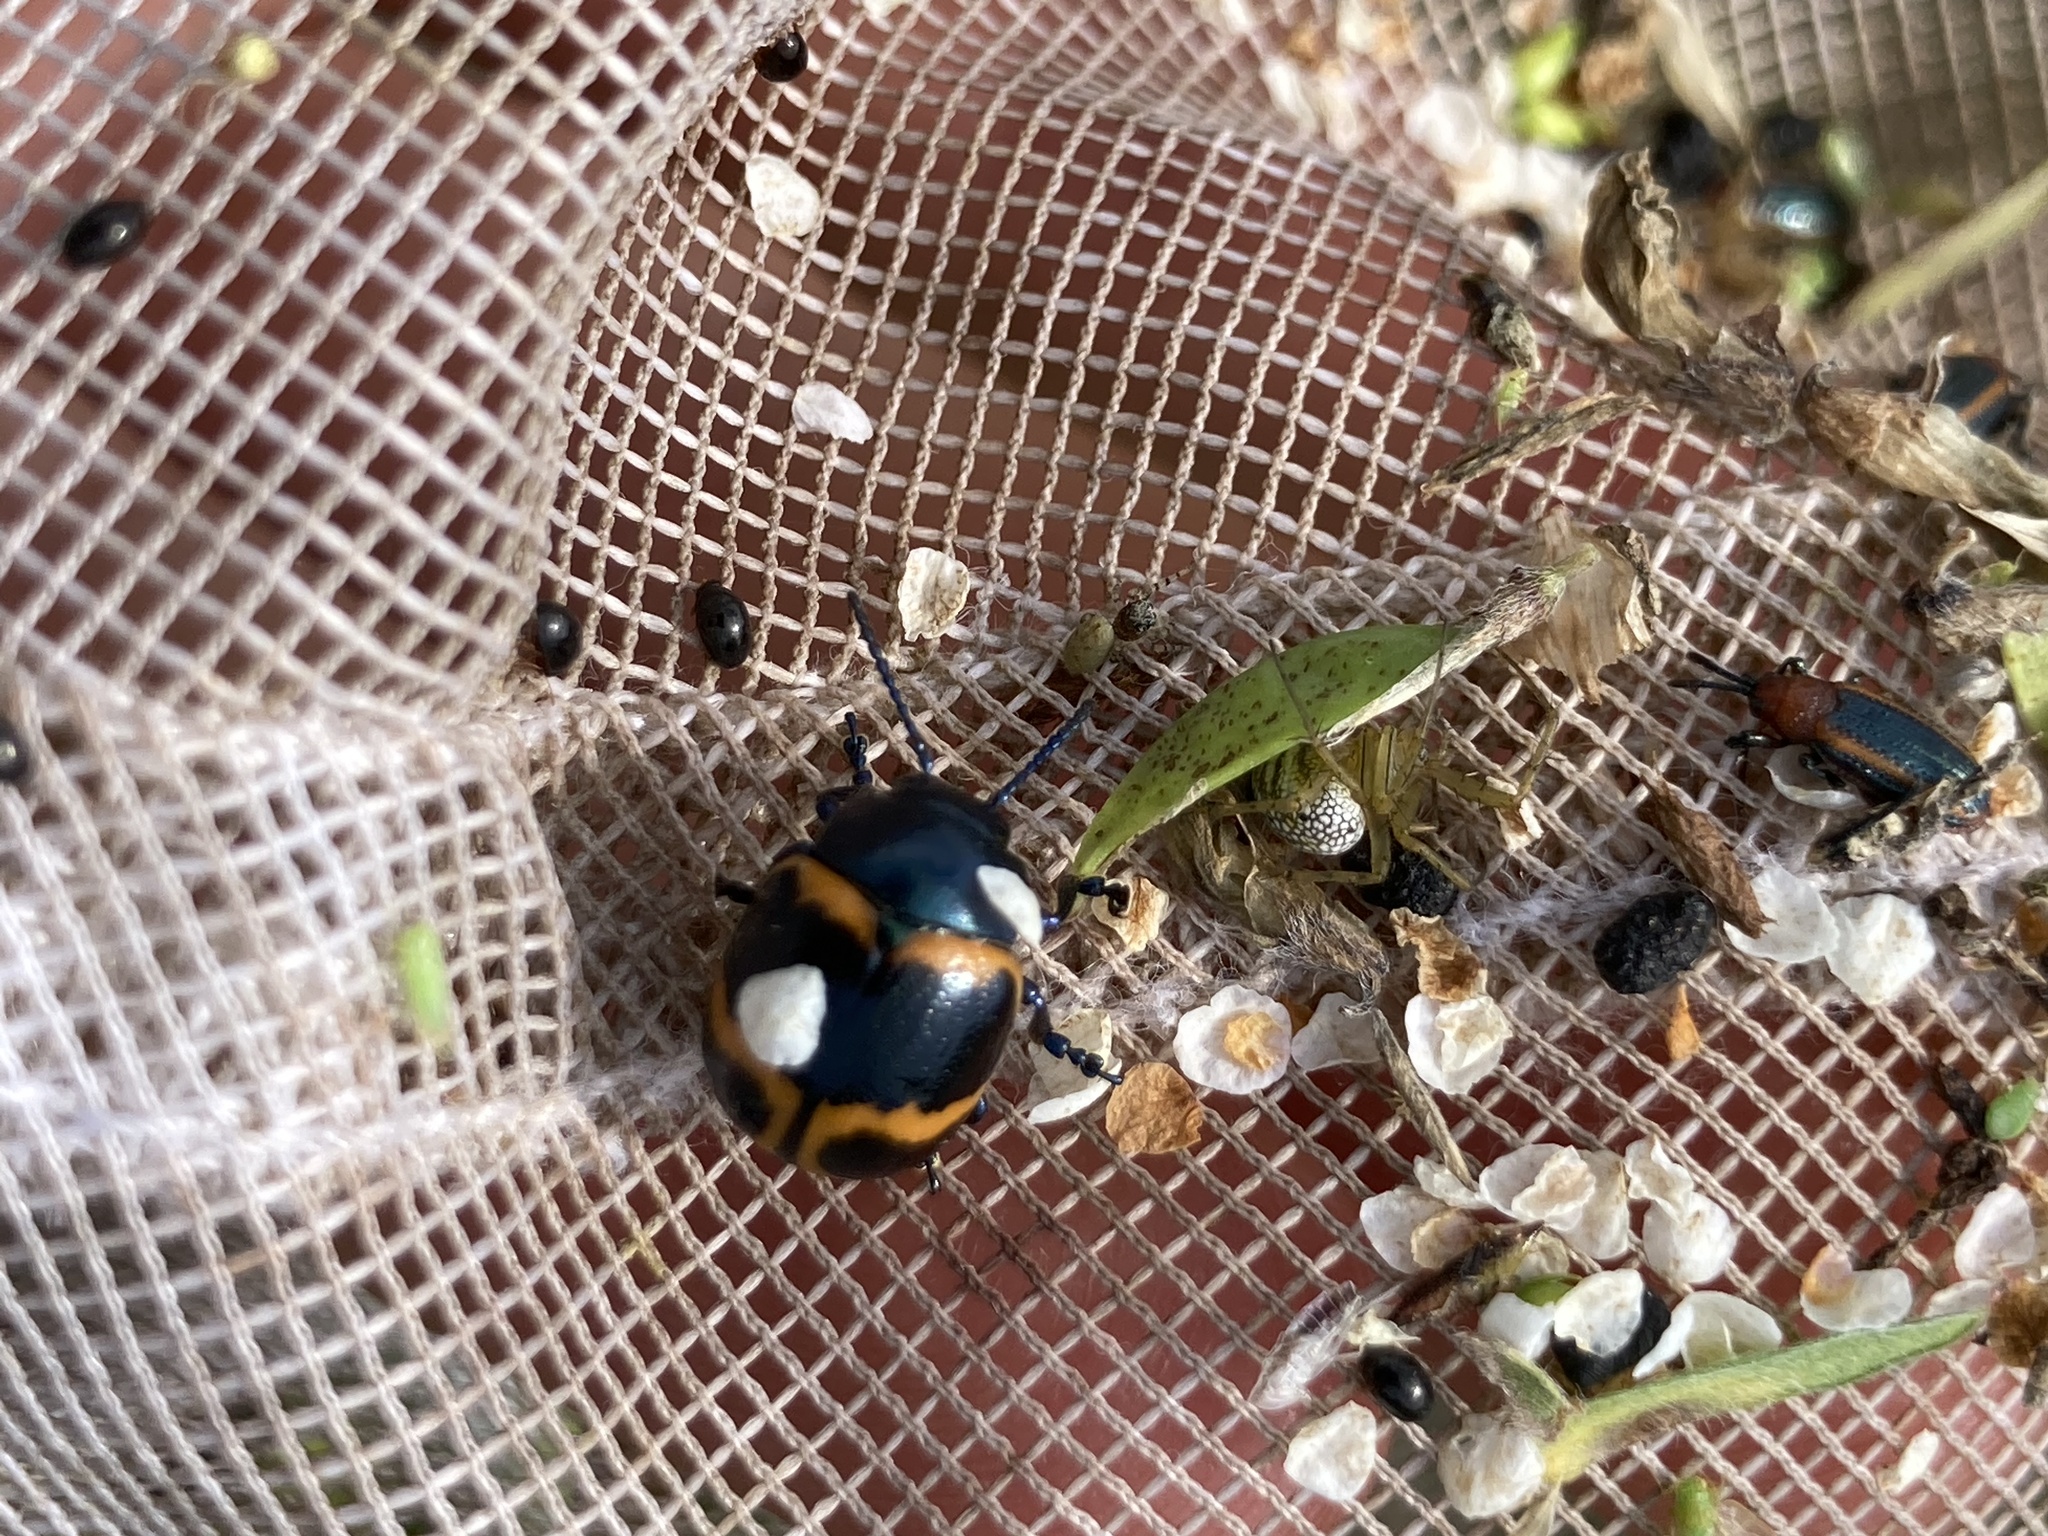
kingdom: Animalia
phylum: Arthropoda
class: Insecta
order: Coleoptera
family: Chrysomelidae
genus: Labidomera
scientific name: Labidomera clivicollis
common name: Swamp milkweed leaf beetle
